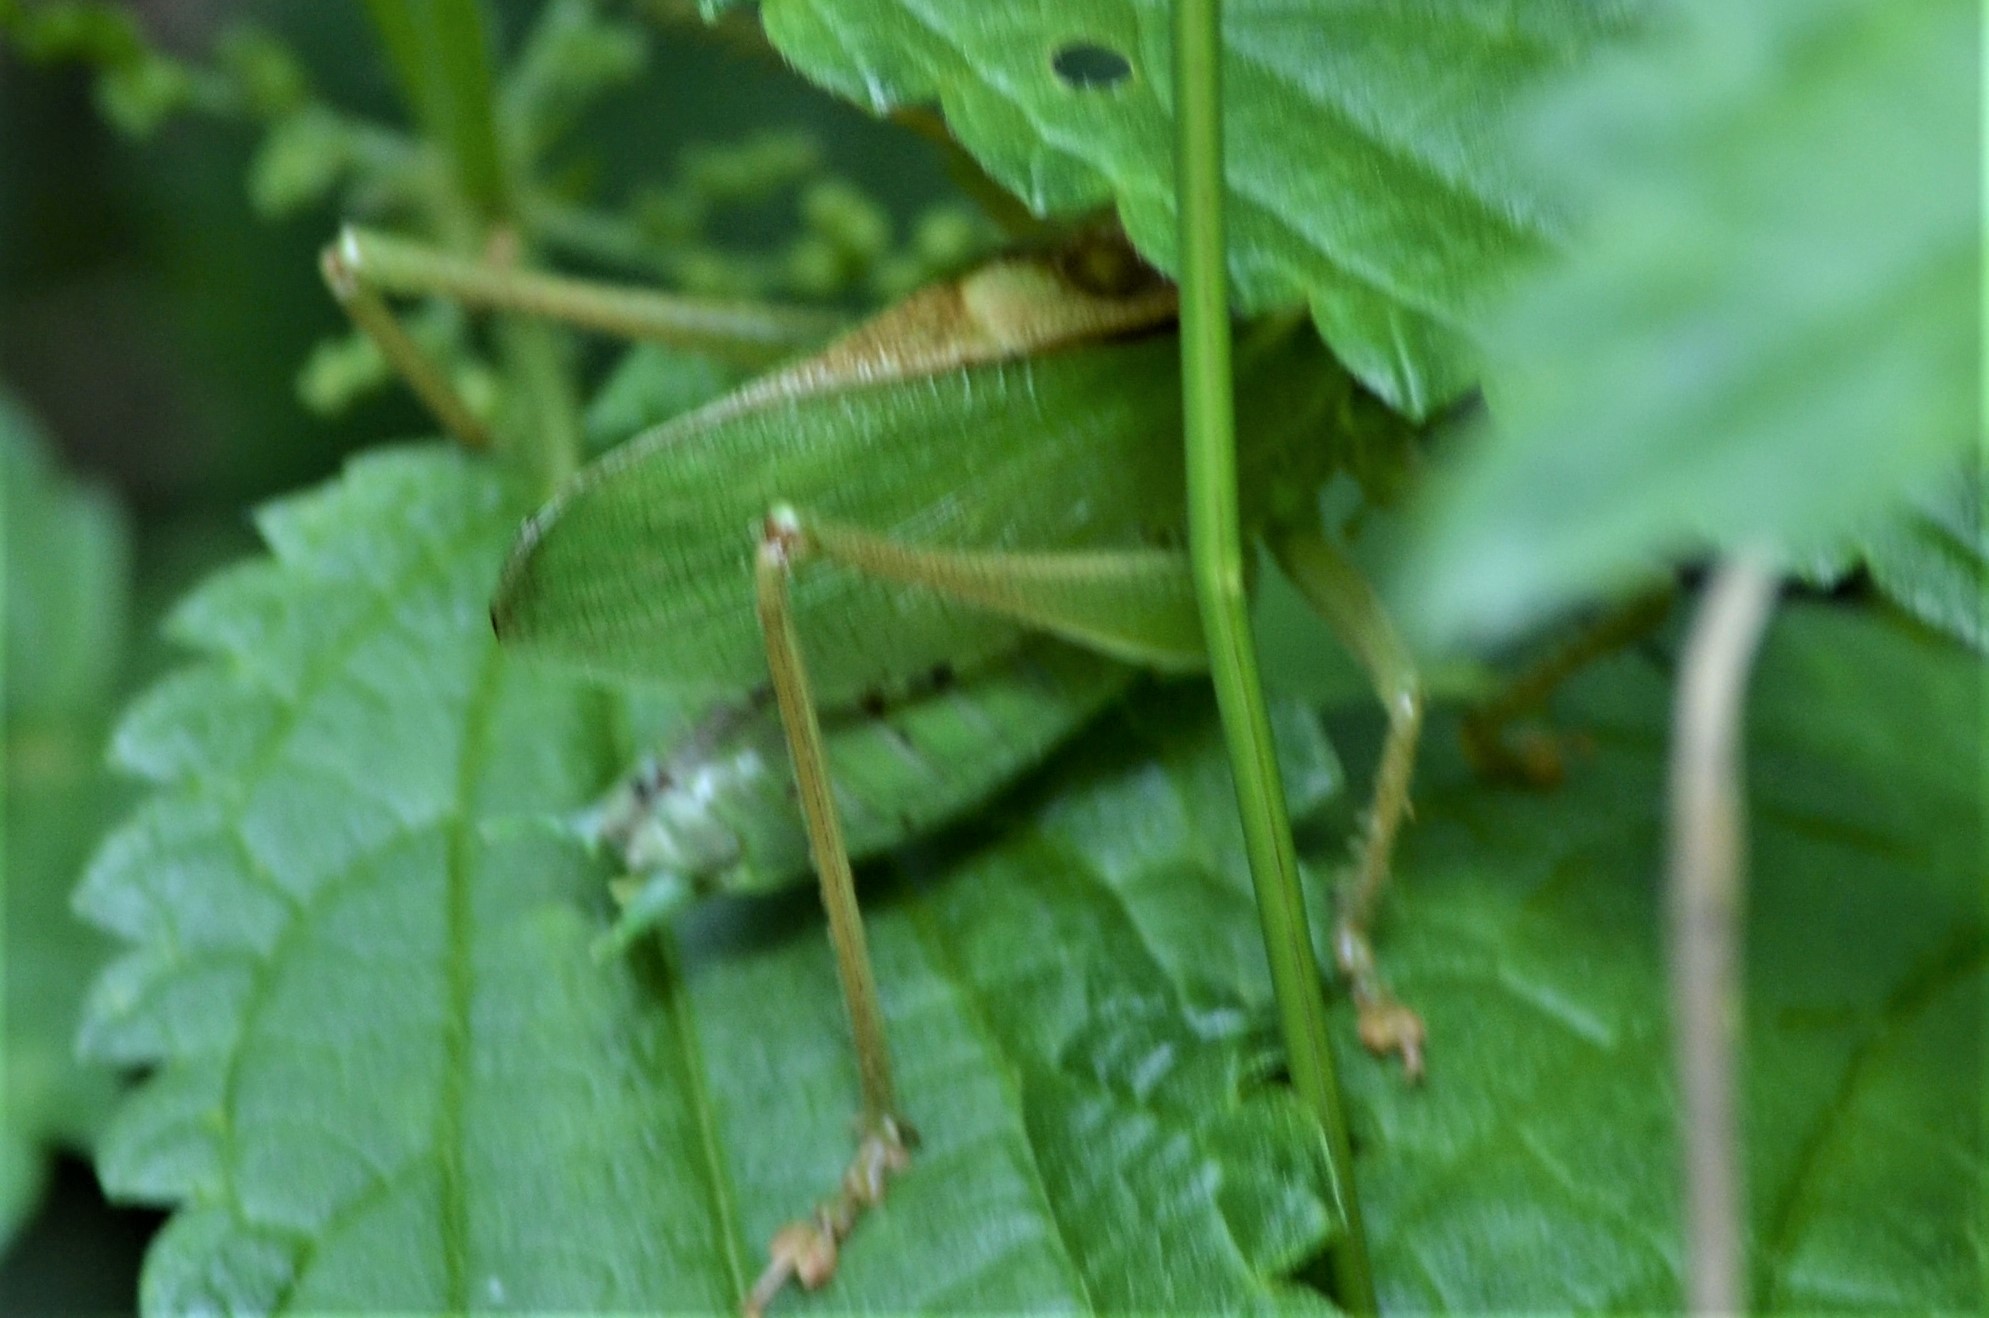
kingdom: Animalia
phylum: Arthropoda
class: Insecta
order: Orthoptera
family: Tettigoniidae
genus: Tettigonia
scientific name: Tettigonia cantans
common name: Upland green bush-cricket
